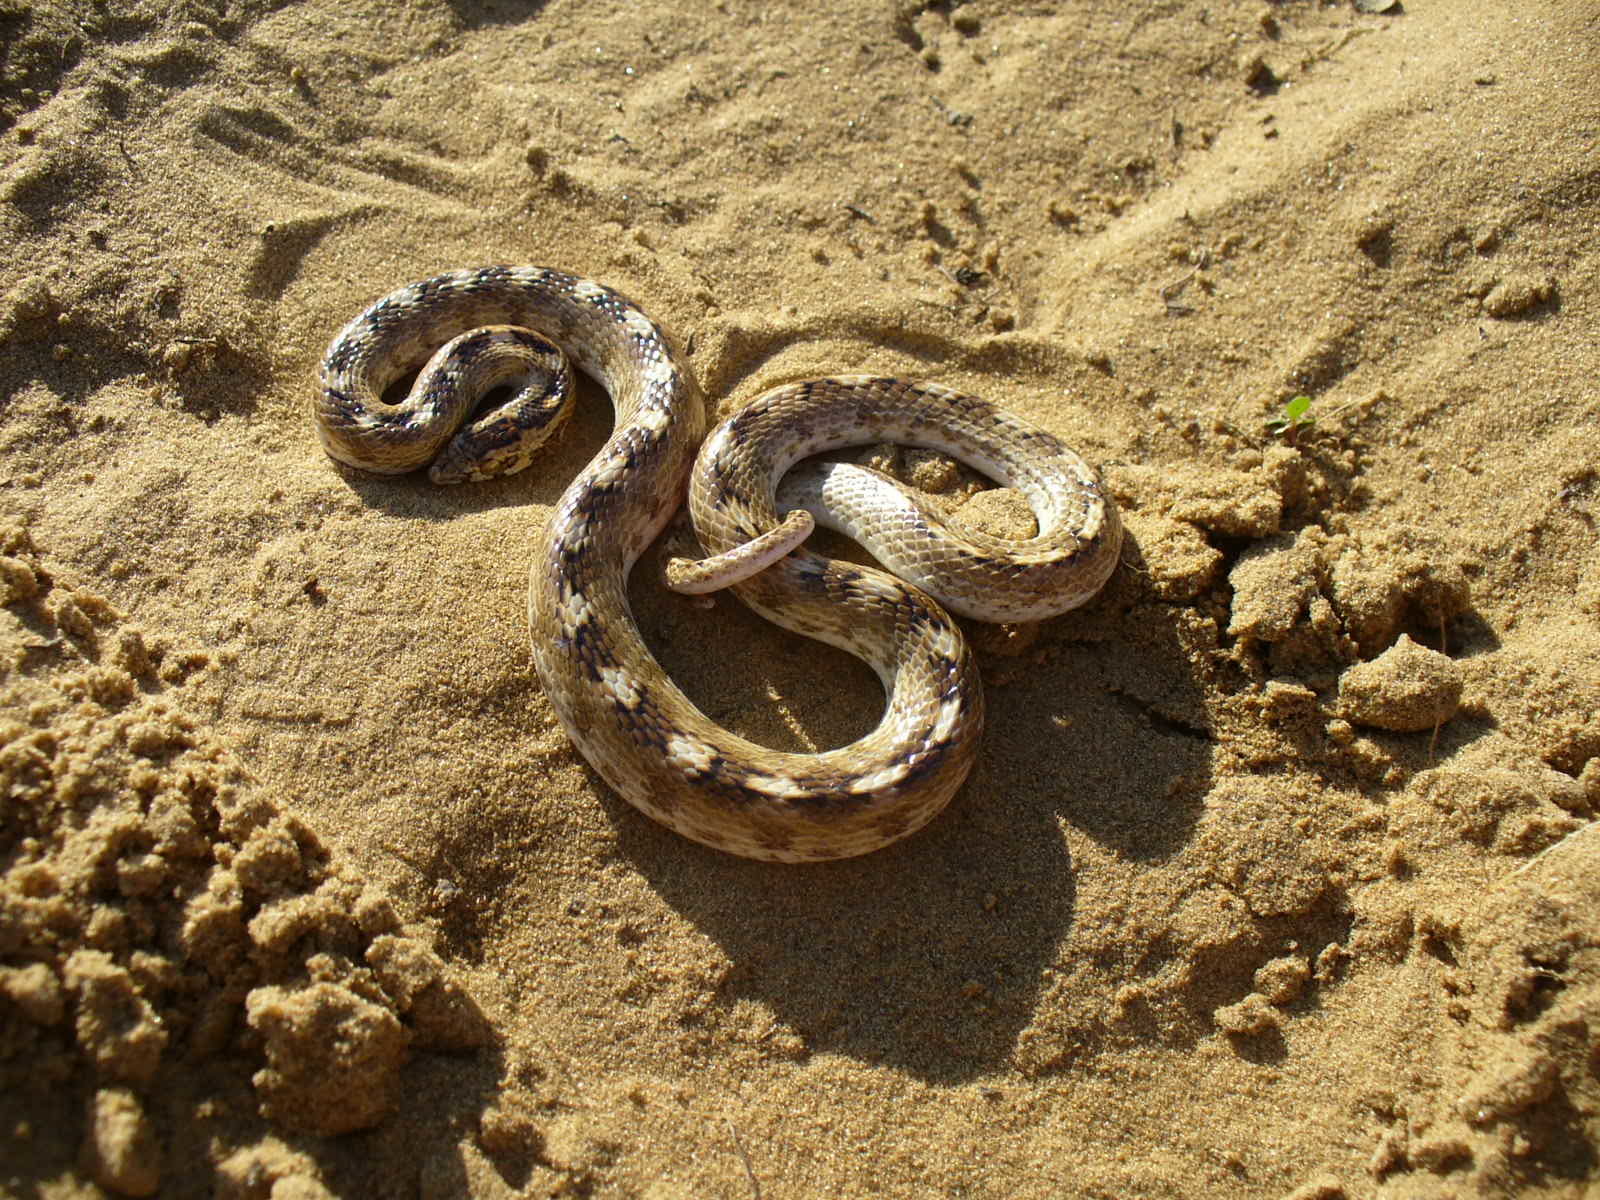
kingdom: Animalia
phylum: Chordata
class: Squamata
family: Colubridae
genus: Lytorhynchus
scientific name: Lytorhynchus paradoxus
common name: Sind longnose sand snake
